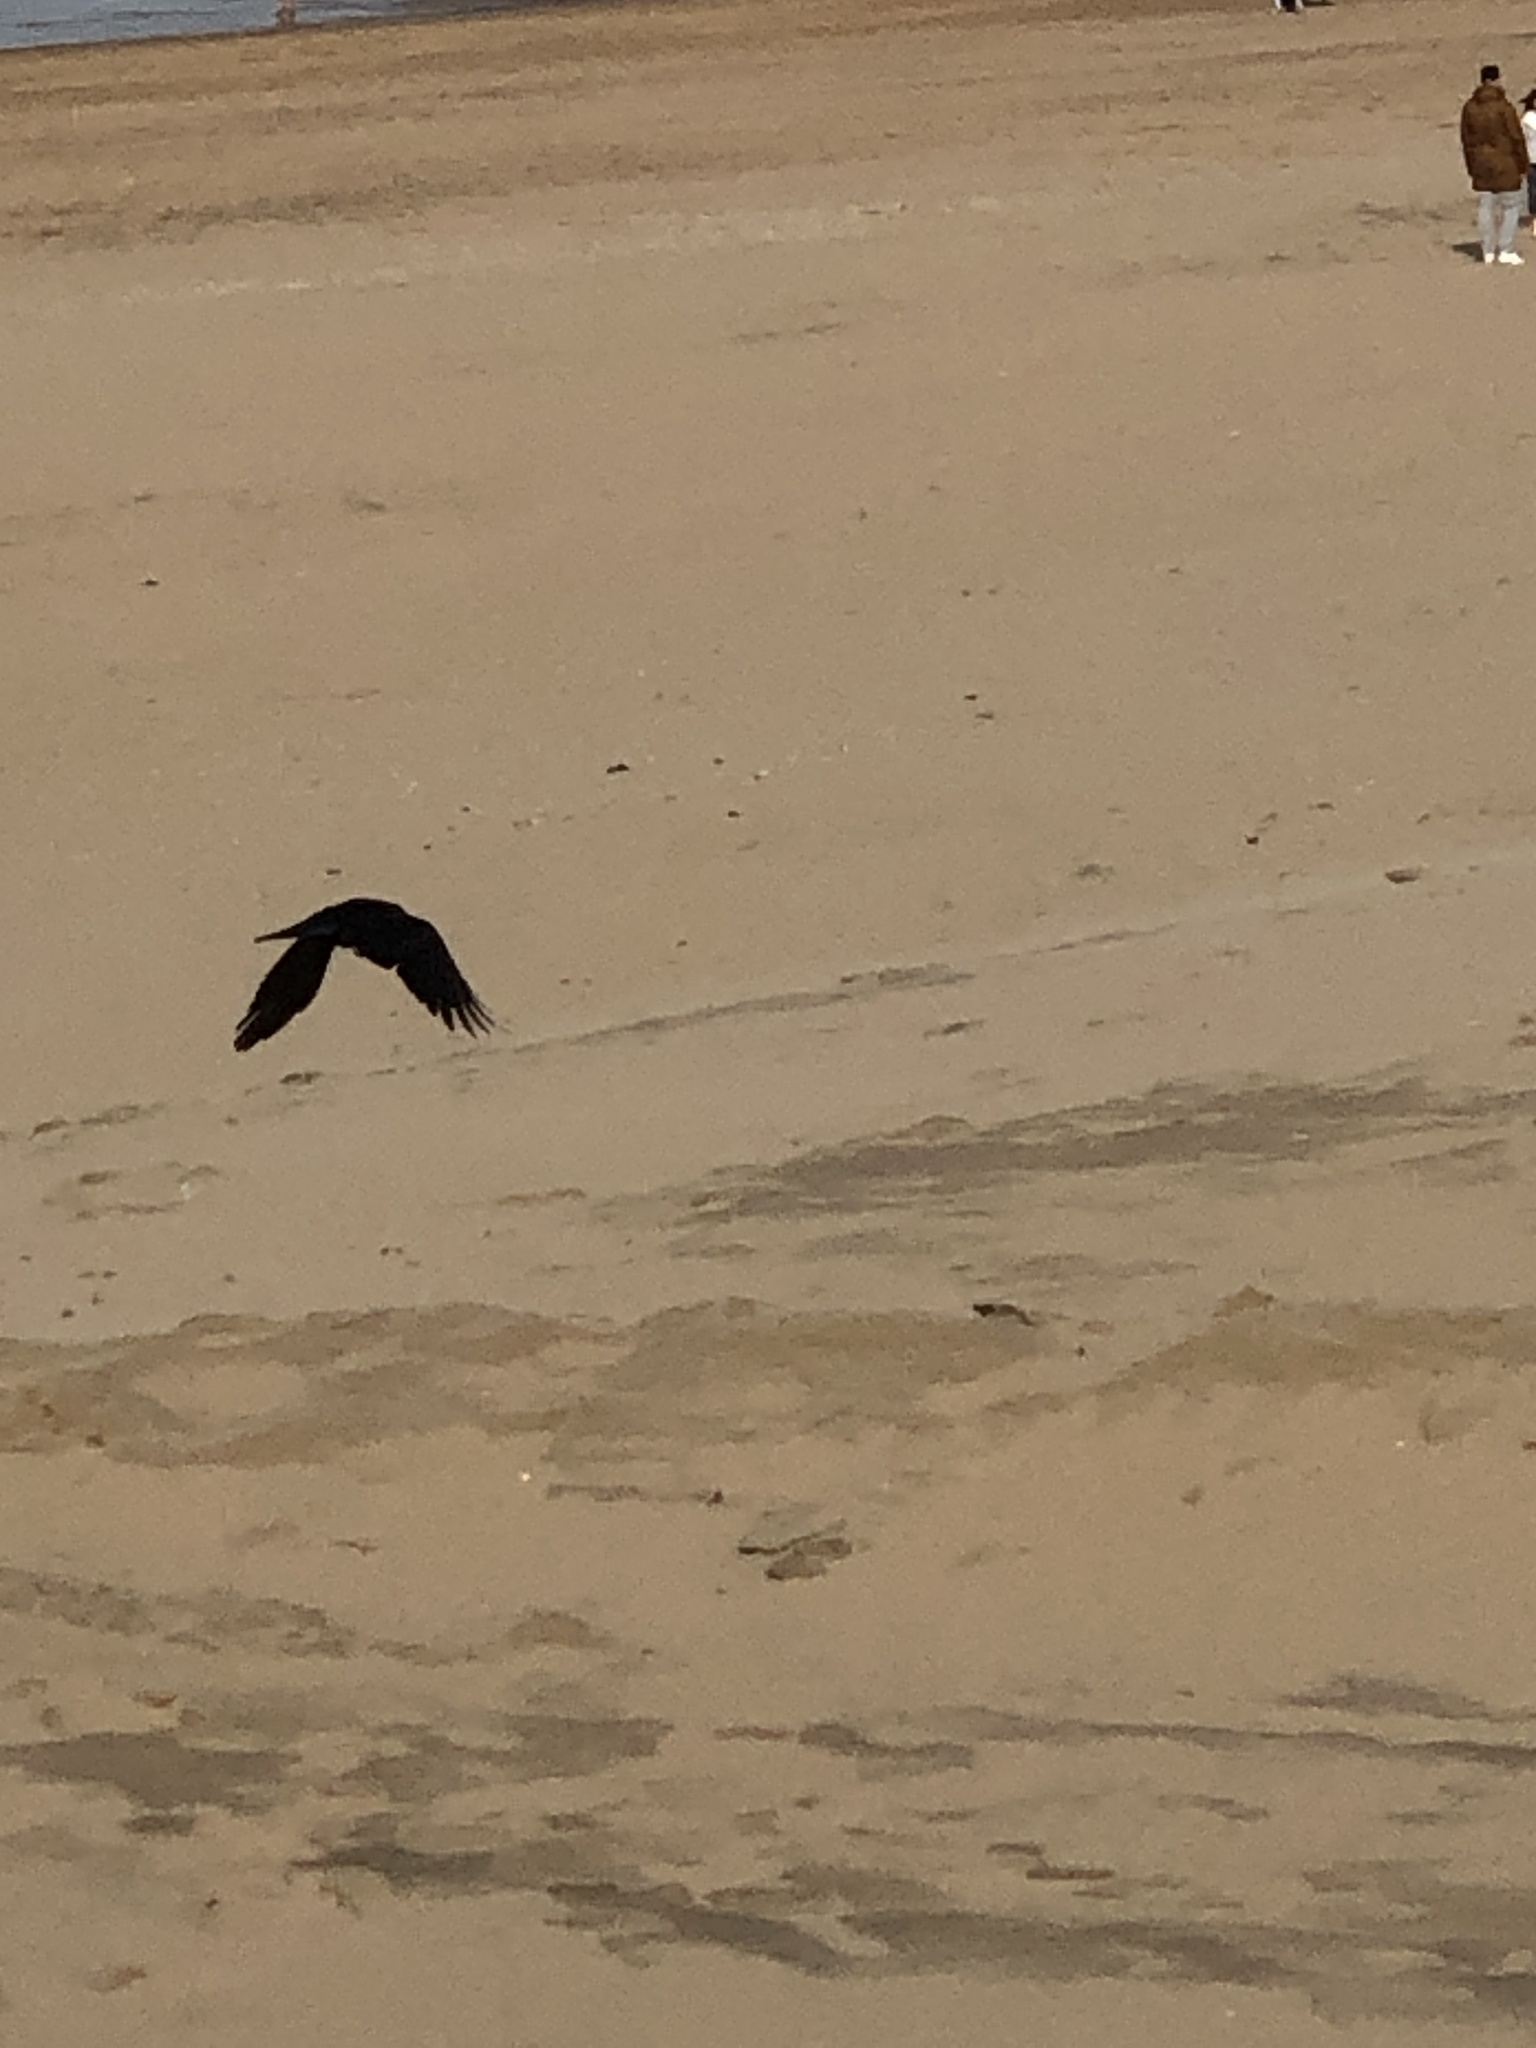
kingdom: Animalia
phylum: Chordata
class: Aves
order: Passeriformes
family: Corvidae
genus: Corvus
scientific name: Corvus corone
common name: Carrion crow
